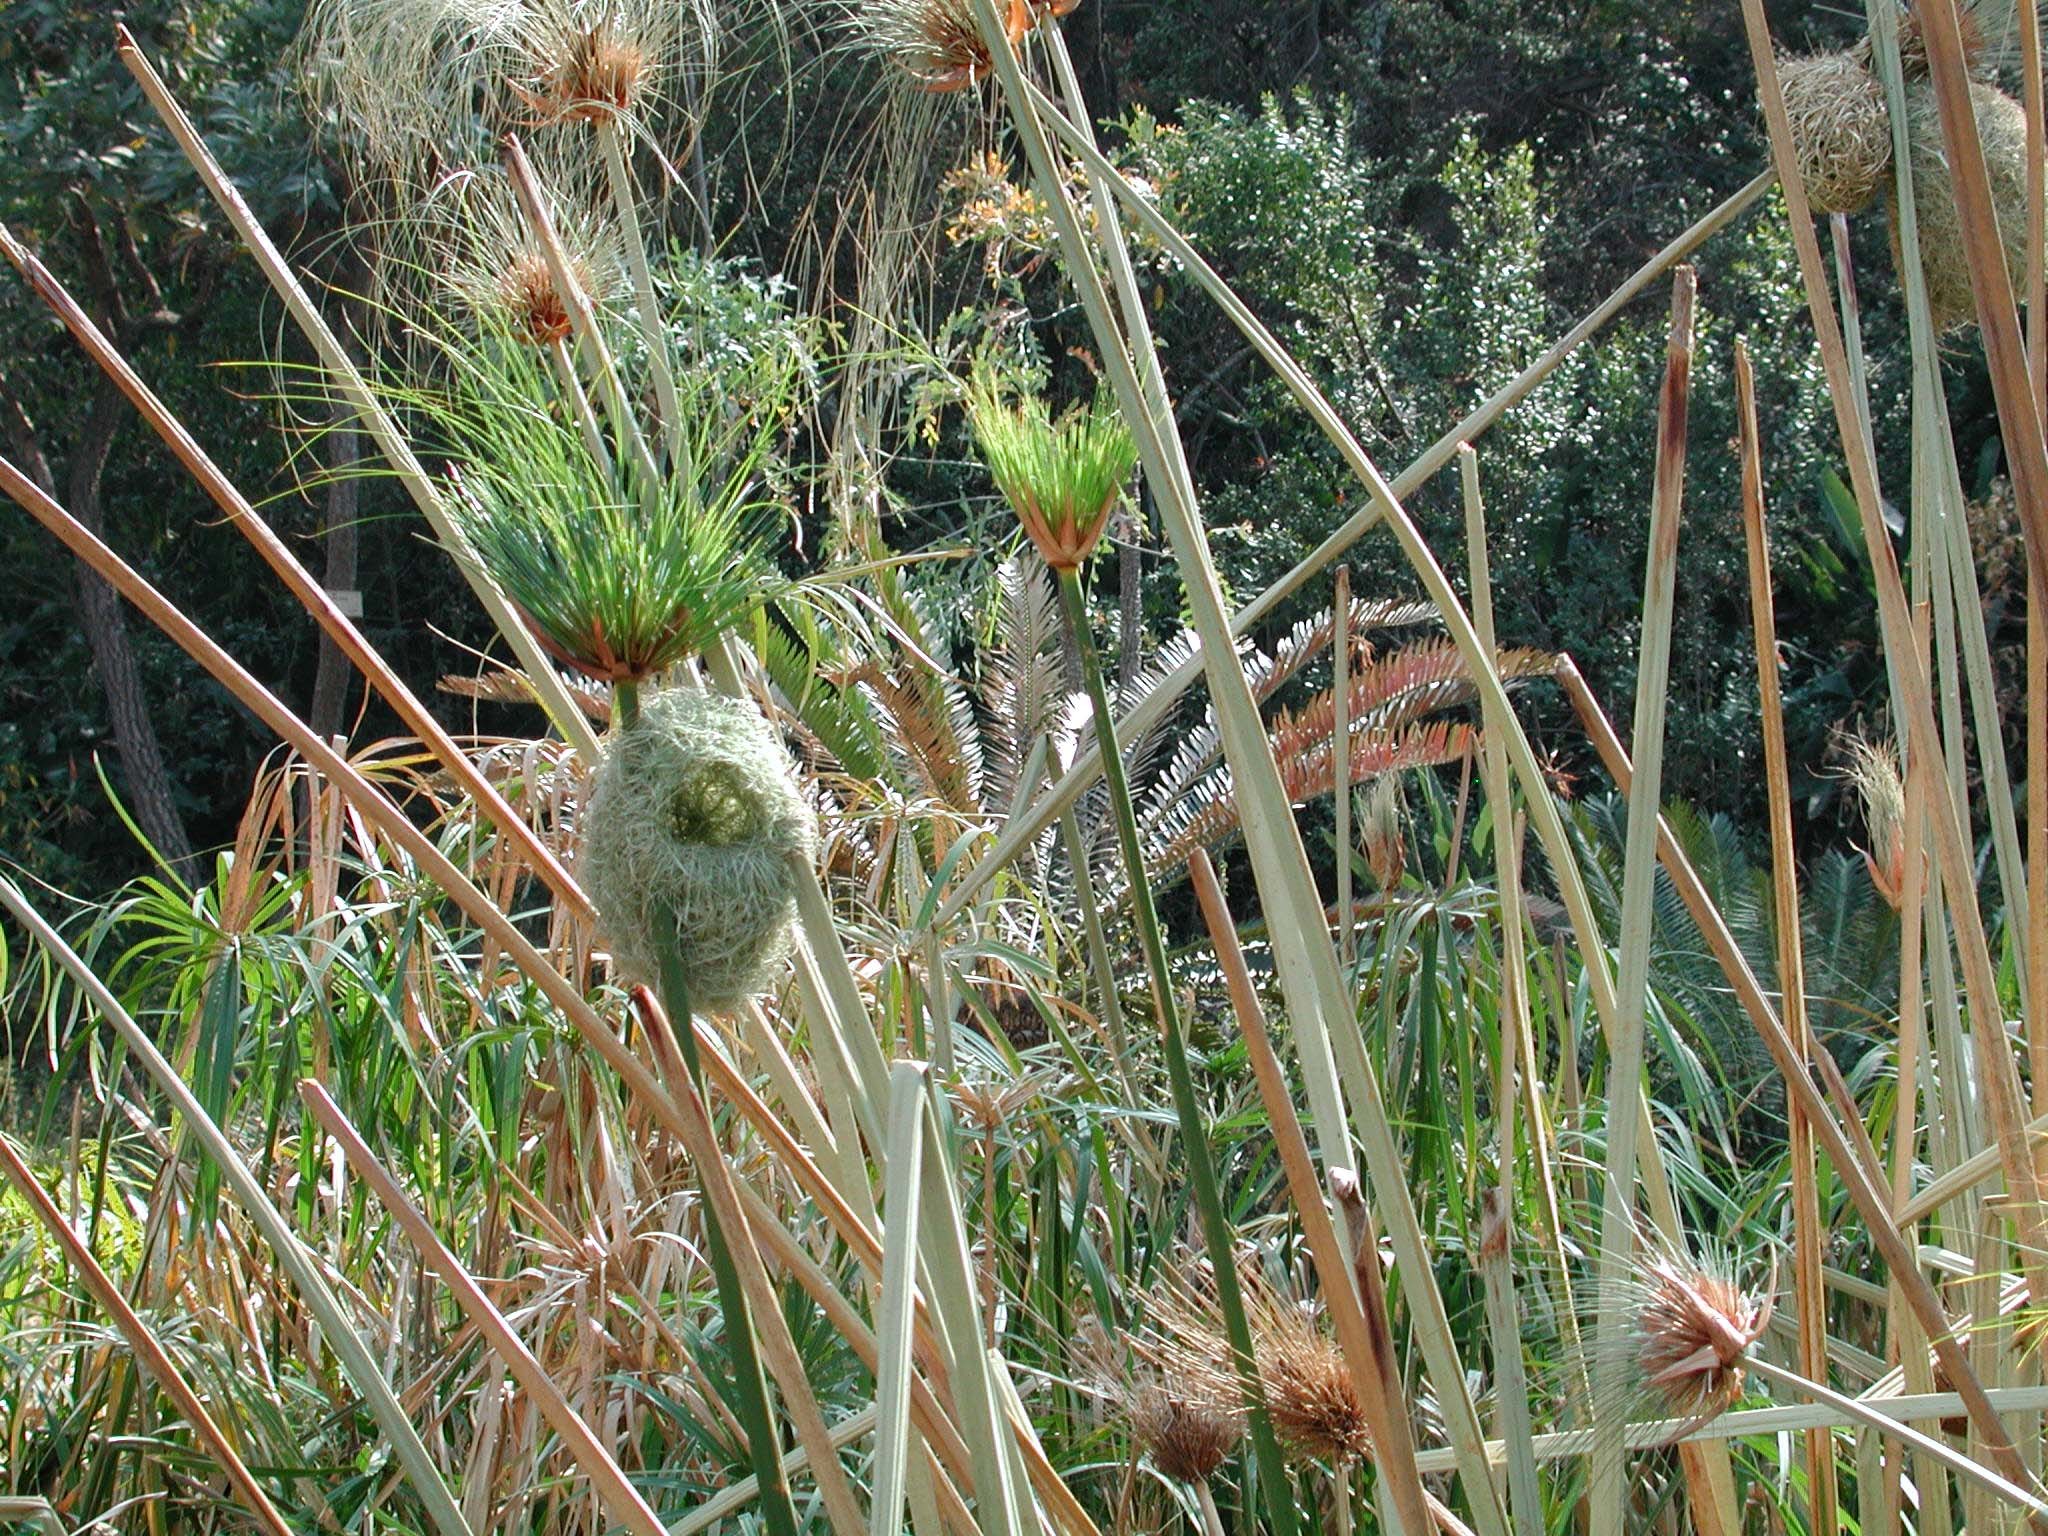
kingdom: Animalia
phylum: Chordata
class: Aves
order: Passeriformes
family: Ploceidae
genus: Amblyospiza
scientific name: Amblyospiza albifrons
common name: Thick-billed weaver
